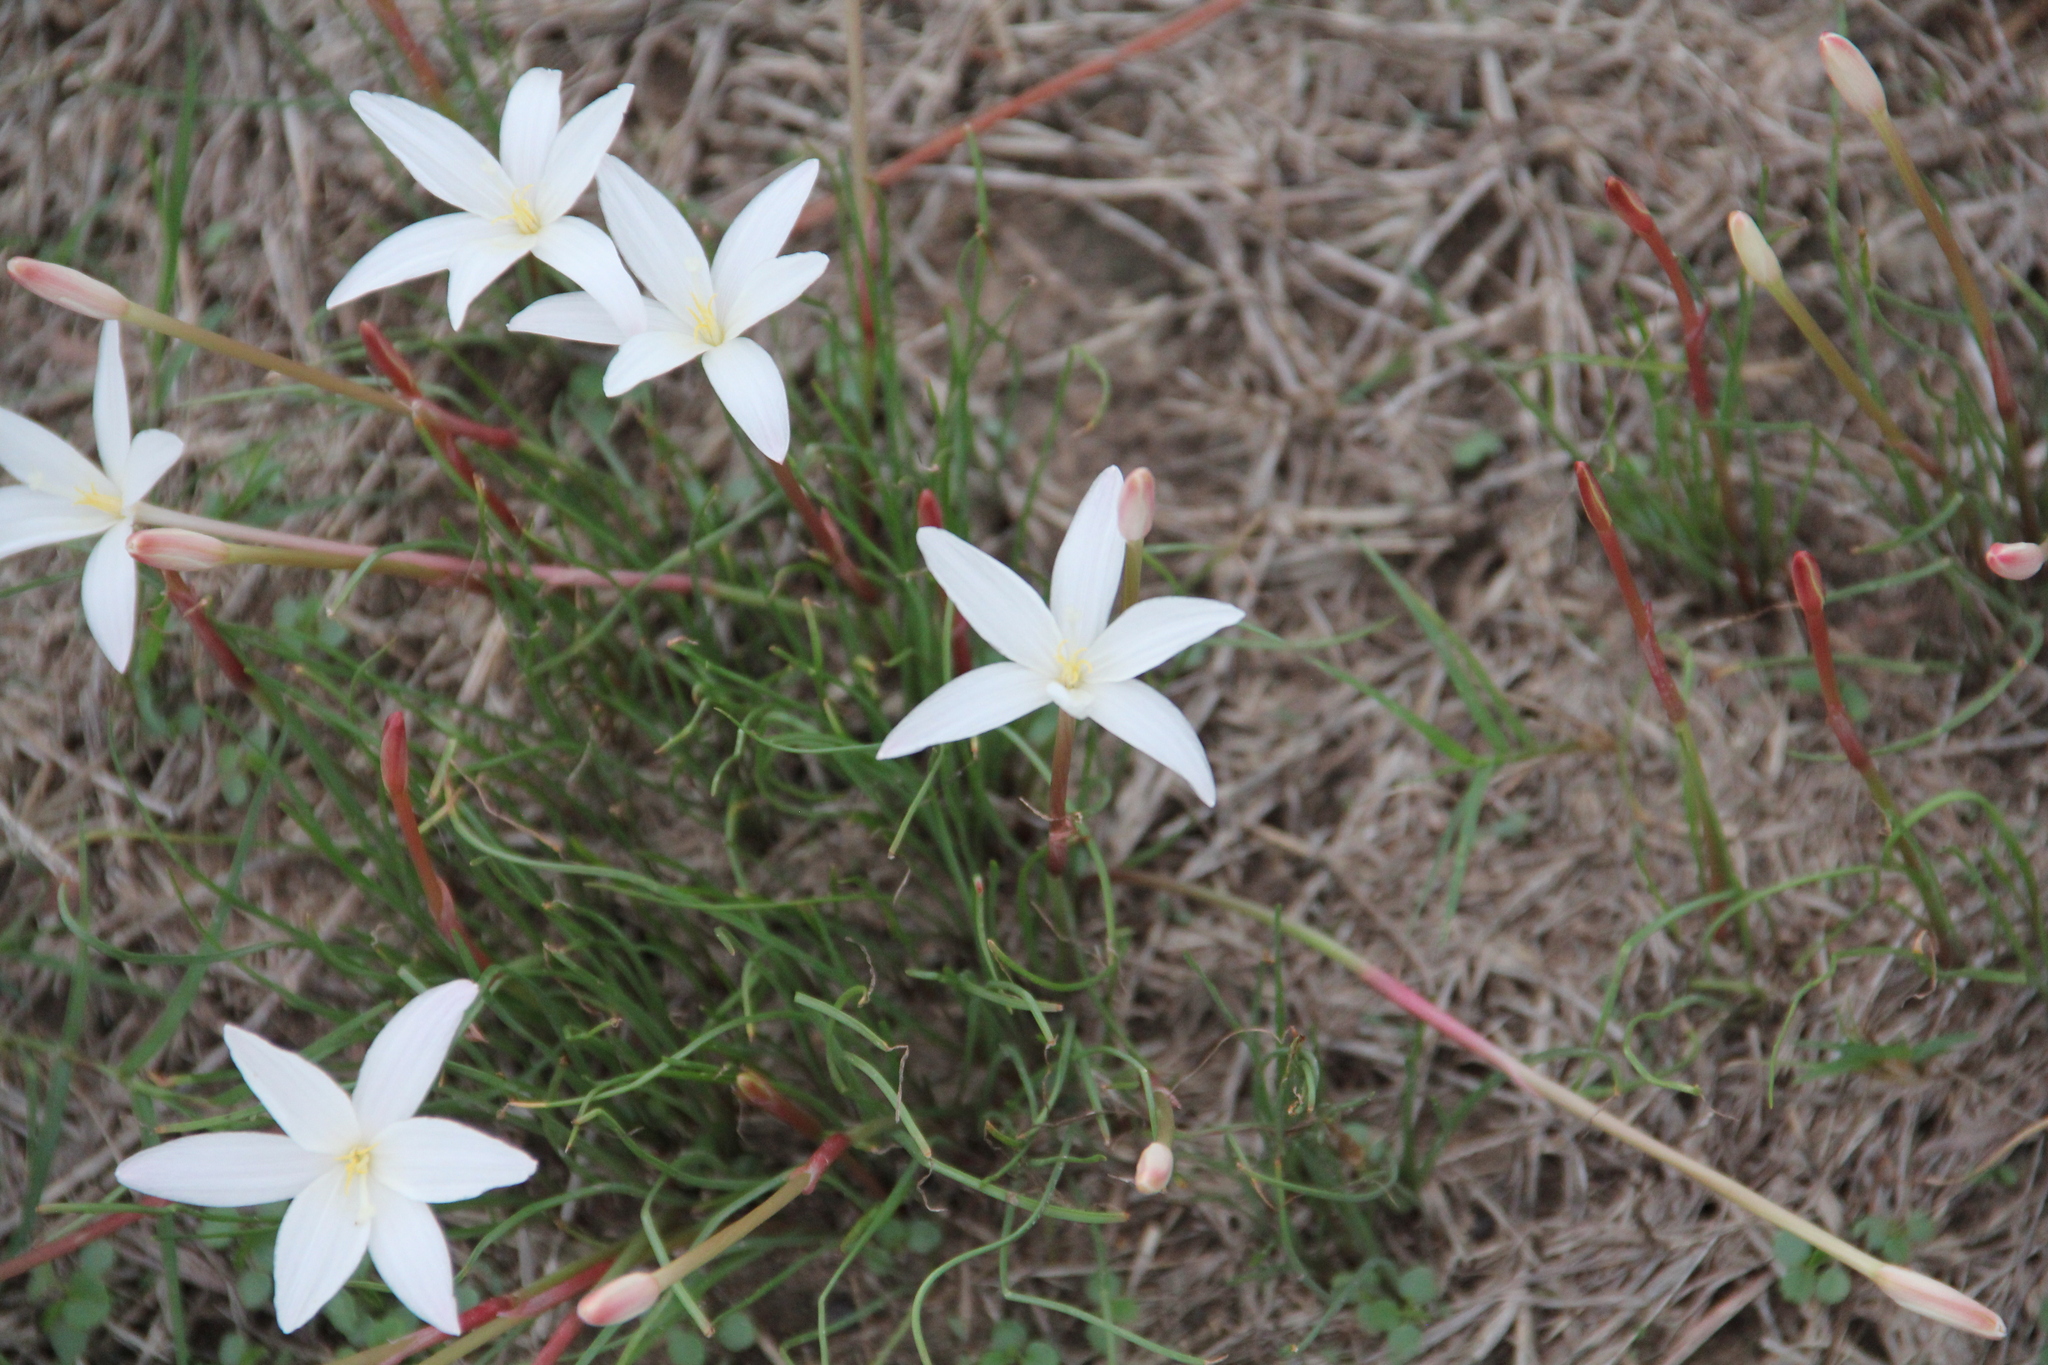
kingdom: Plantae
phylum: Tracheophyta
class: Liliopsida
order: Asparagales
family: Amaryllidaceae
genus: Zephyranthes
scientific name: Zephyranthes traubii
